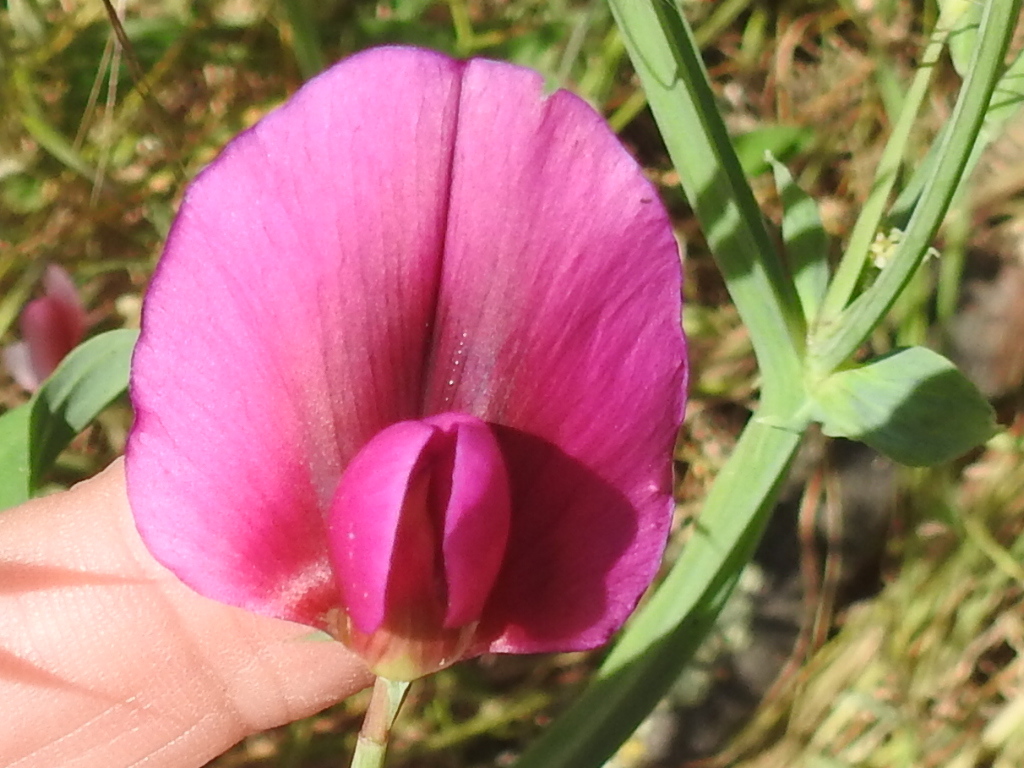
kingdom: Plantae
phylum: Tracheophyta
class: Magnoliopsida
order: Fabales
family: Fabaceae
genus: Lathyrus
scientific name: Lathyrus tingitanus
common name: Tangier pea
